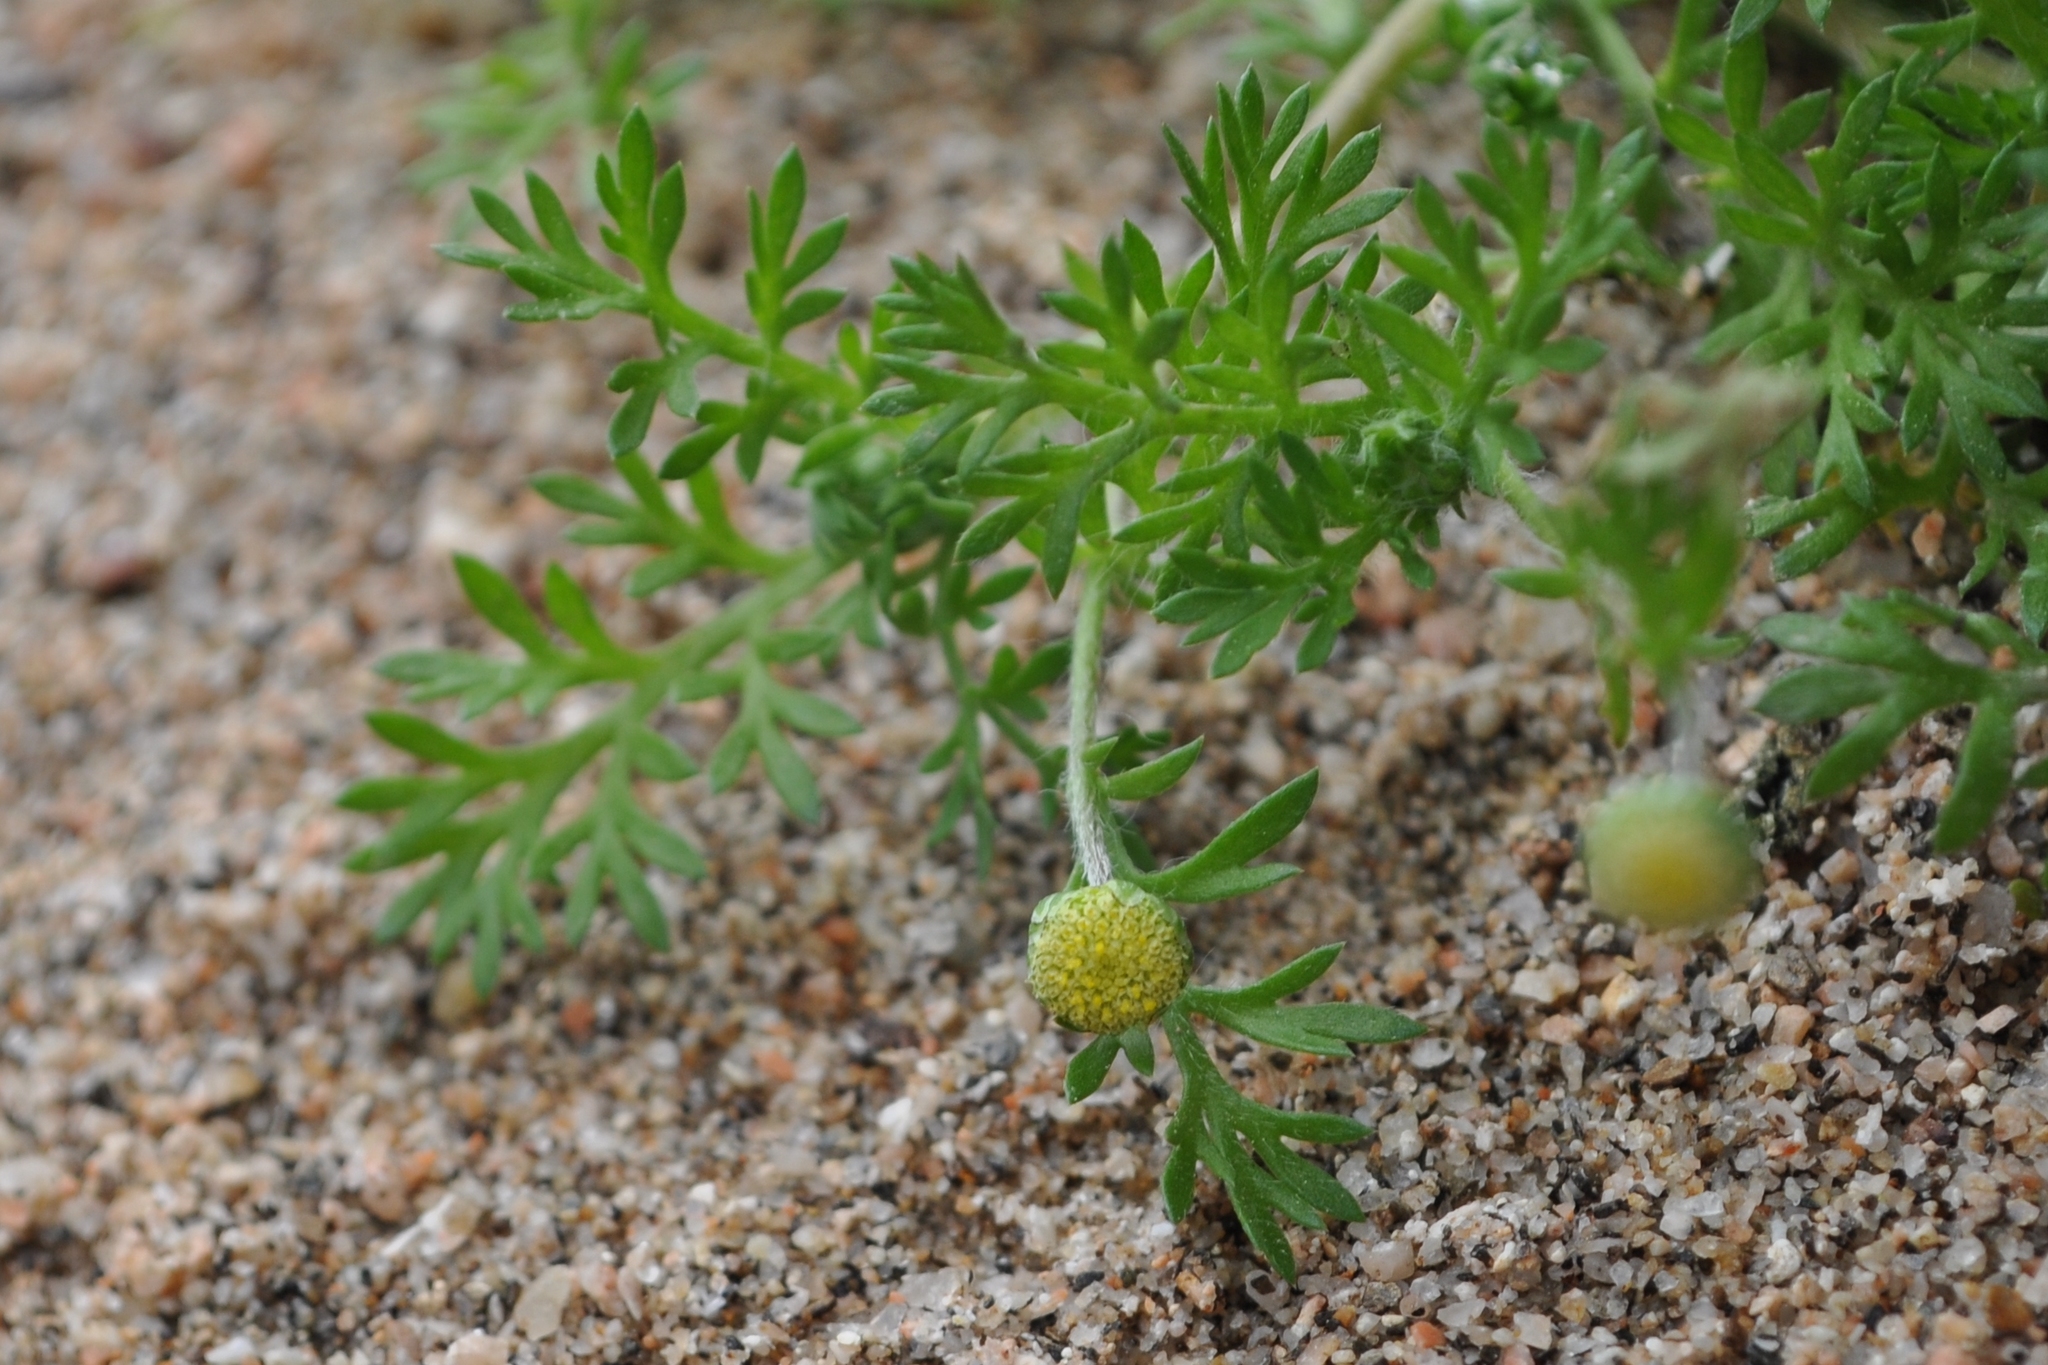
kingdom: Plantae
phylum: Tracheophyta
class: Magnoliopsida
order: Asterales
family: Asteraceae
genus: Cotula
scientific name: Cotula australis
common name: Australian waterbuttons
